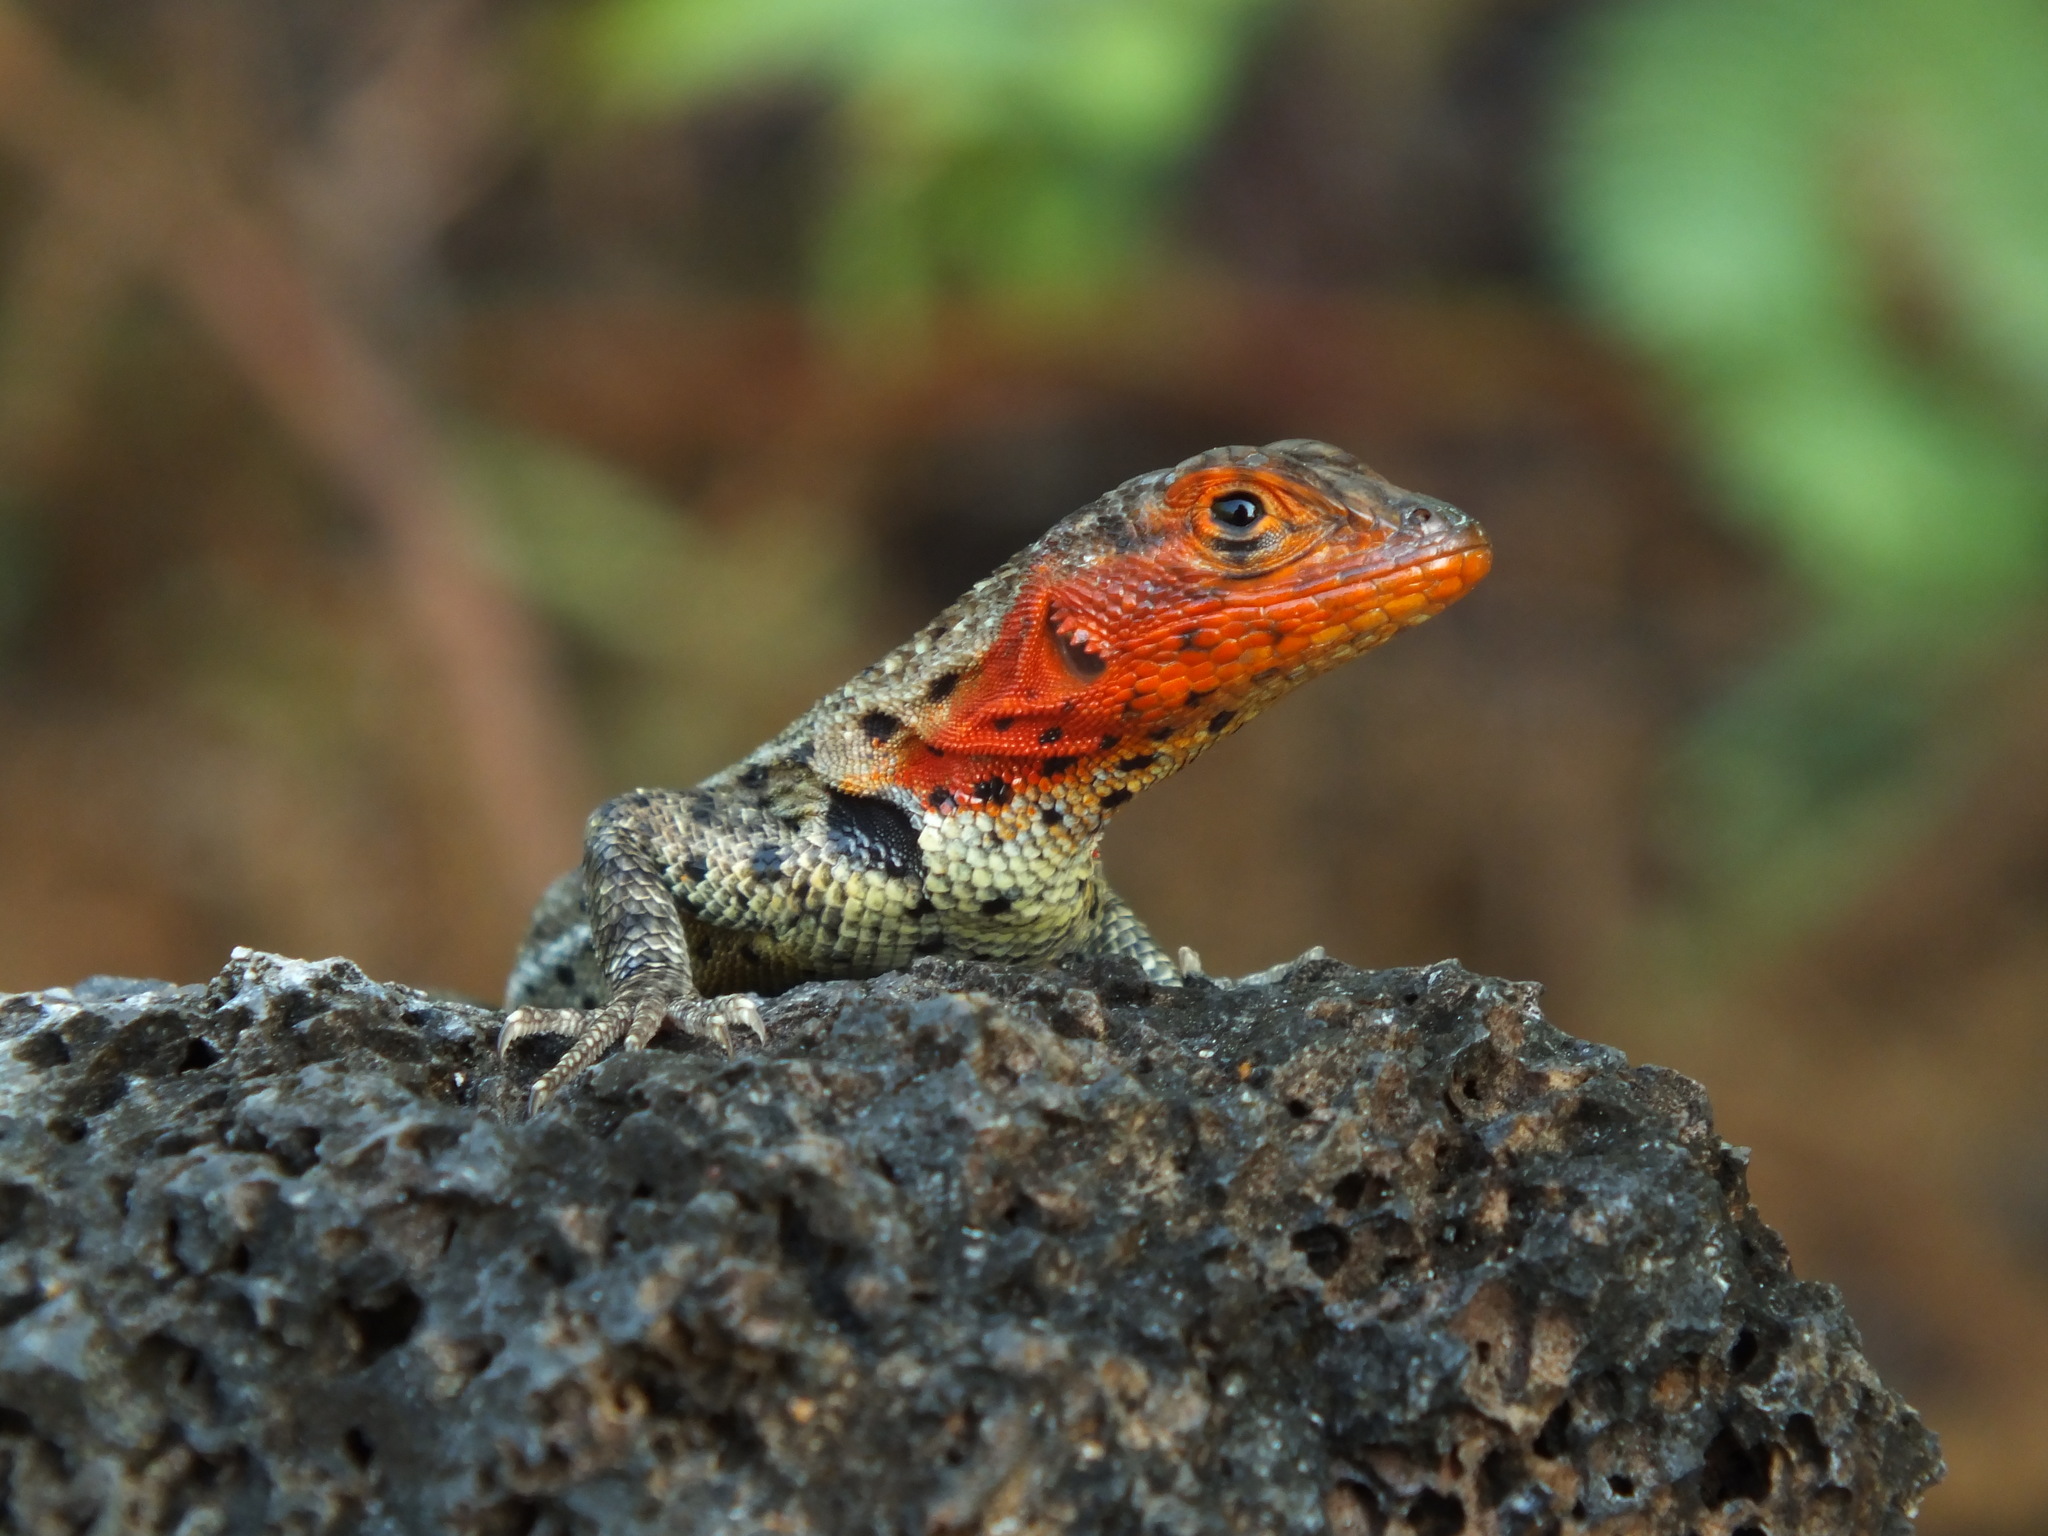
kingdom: Animalia
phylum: Chordata
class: Squamata
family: Tropiduridae
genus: Microlophus
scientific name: Microlophus albemarlensis
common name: Galapagos lava lizard
